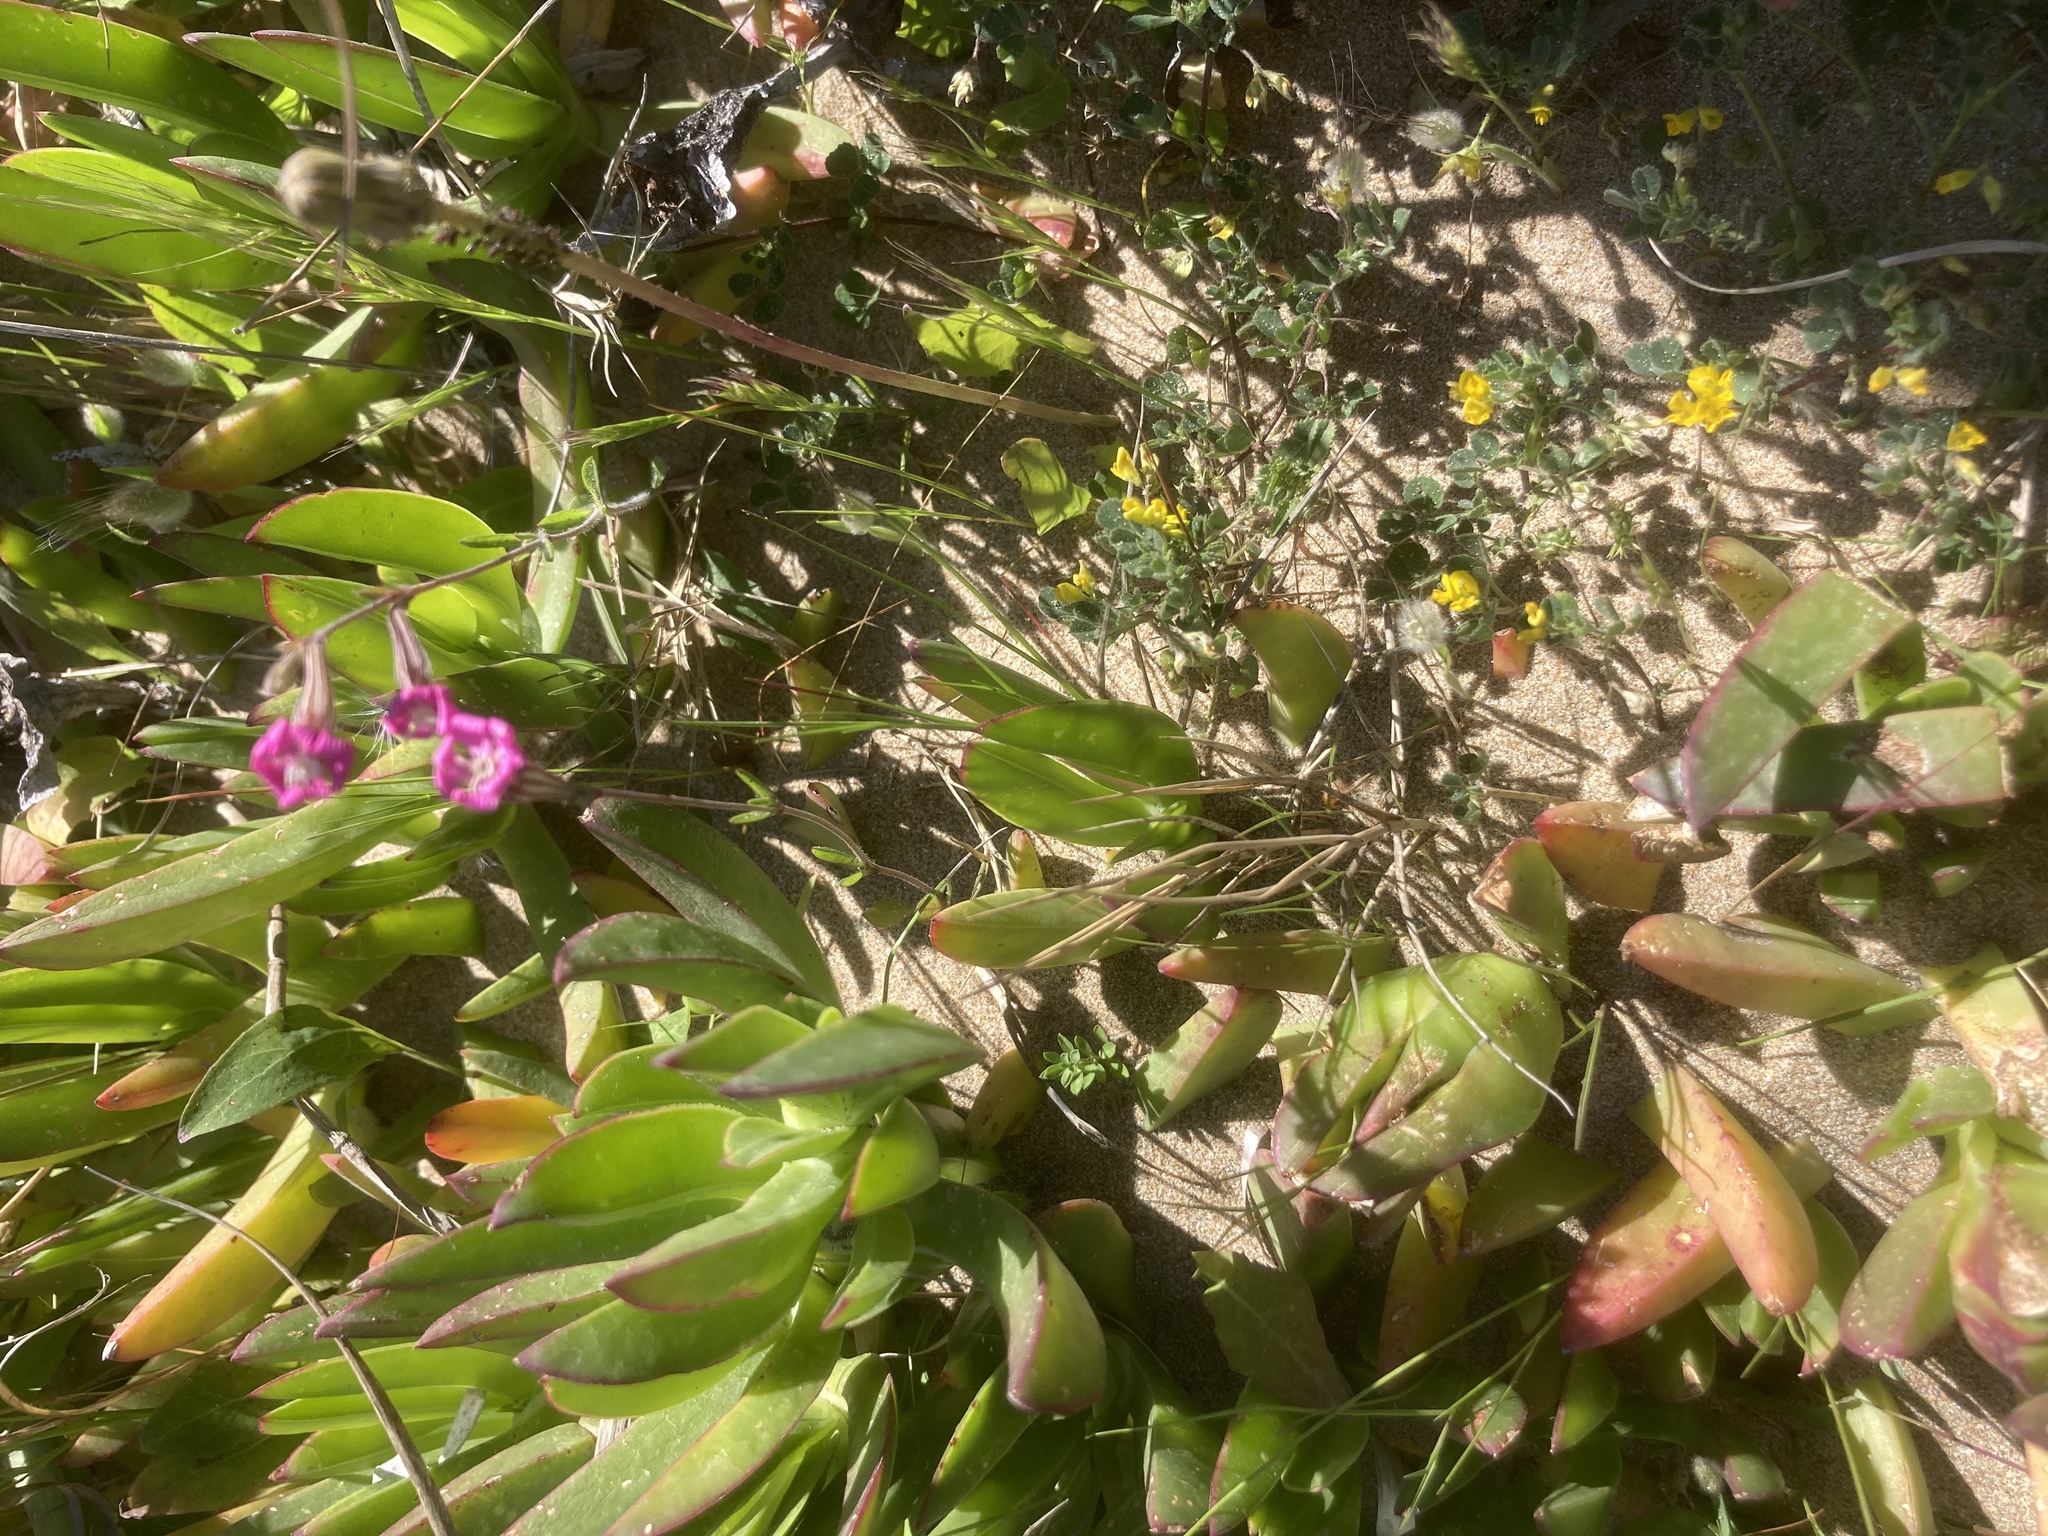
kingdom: Plantae
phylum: Tracheophyta
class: Magnoliopsida
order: Caryophyllales
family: Caryophyllaceae
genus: Silene
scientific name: Silene colorata
